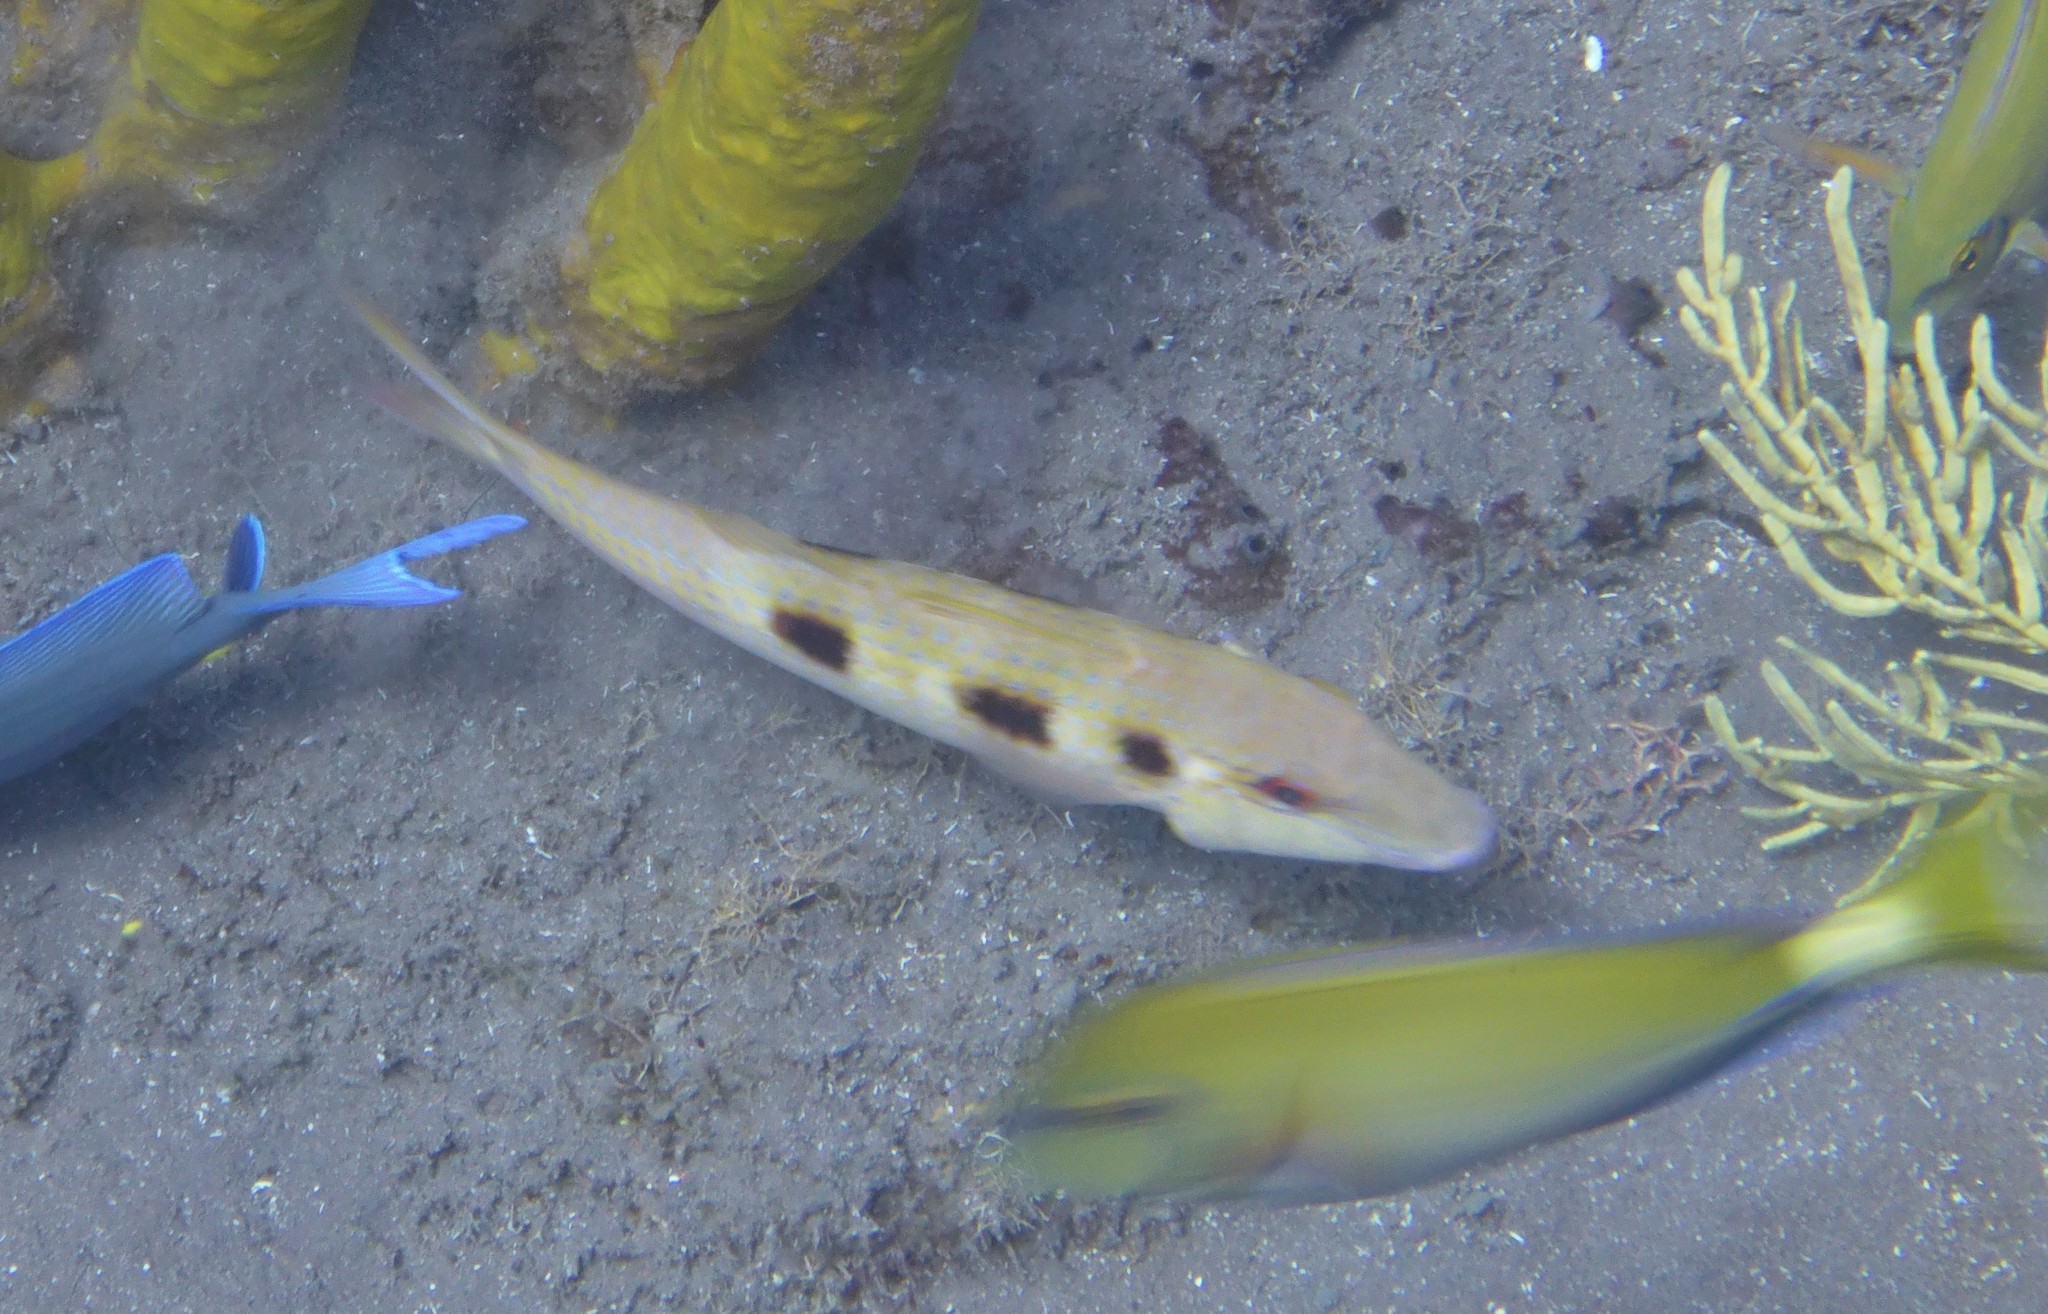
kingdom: Animalia
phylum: Chordata
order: Perciformes
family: Mullidae
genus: Pseudupeneus
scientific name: Pseudupeneus maculatus
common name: Spotted goatfish
